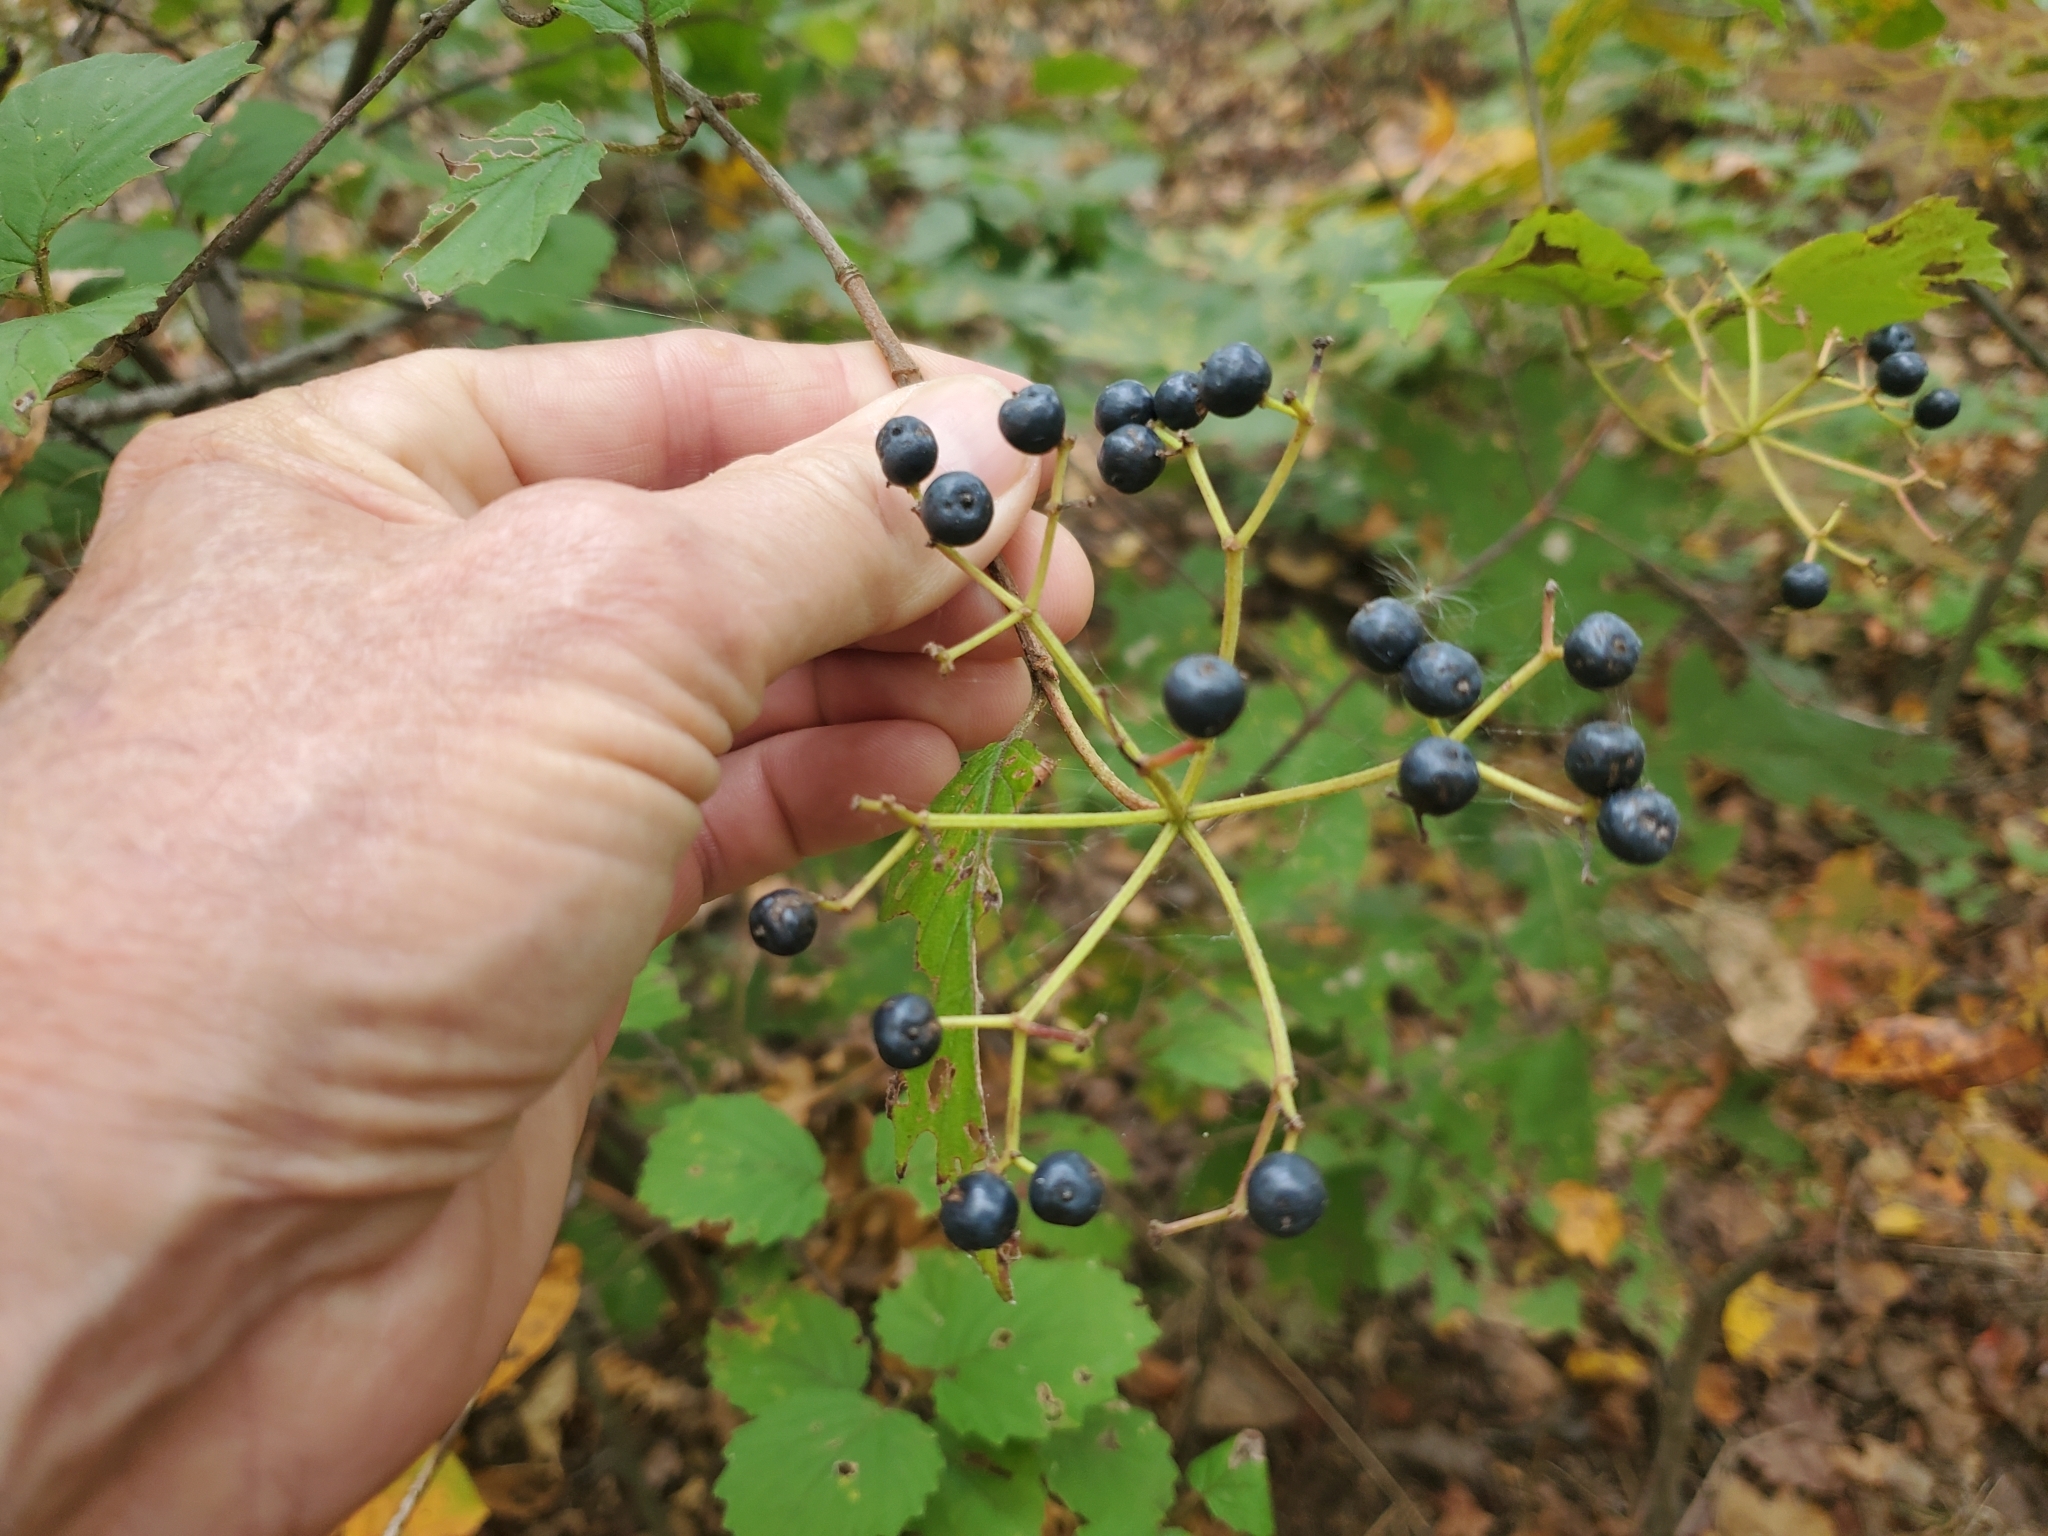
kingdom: Plantae
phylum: Tracheophyta
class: Magnoliopsida
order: Dipsacales
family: Viburnaceae
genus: Viburnum
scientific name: Viburnum dentatum
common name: Arrow-wood
